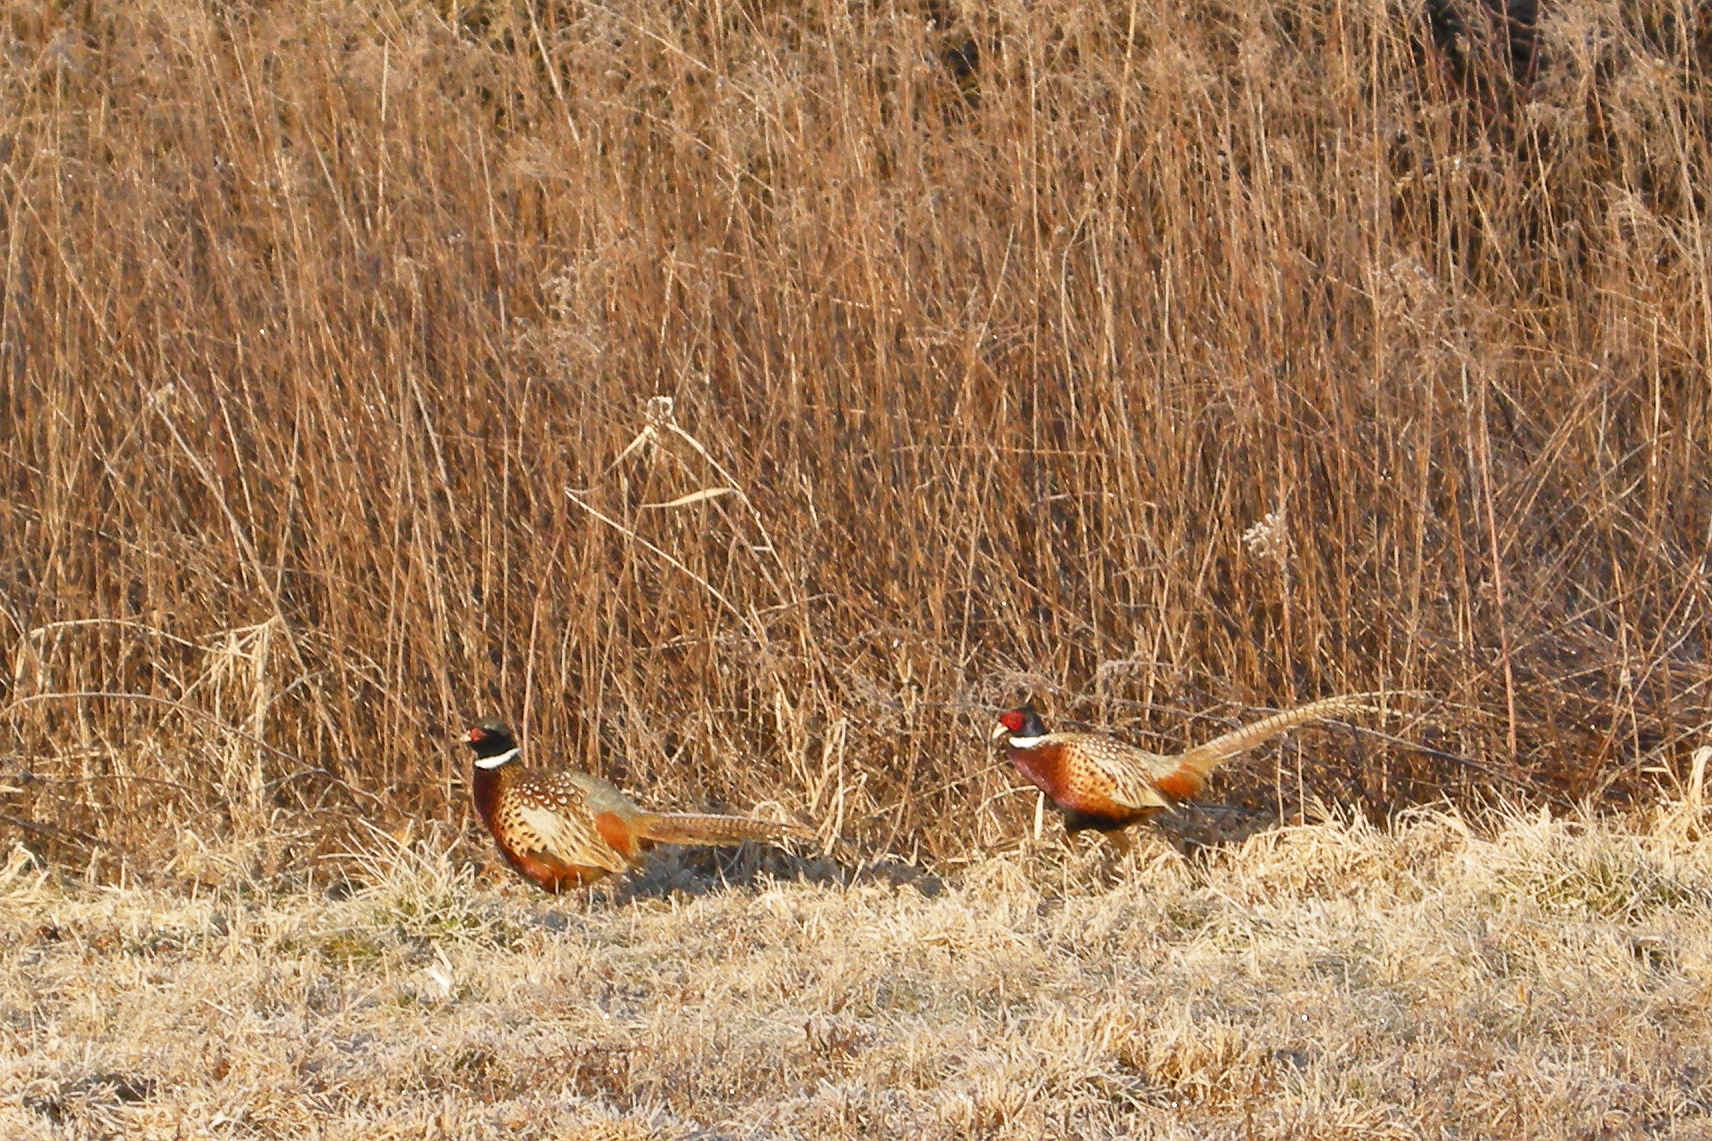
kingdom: Animalia
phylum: Chordata
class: Aves
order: Galliformes
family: Phasianidae
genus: Phasianus
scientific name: Phasianus colchicus
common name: Common pheasant
